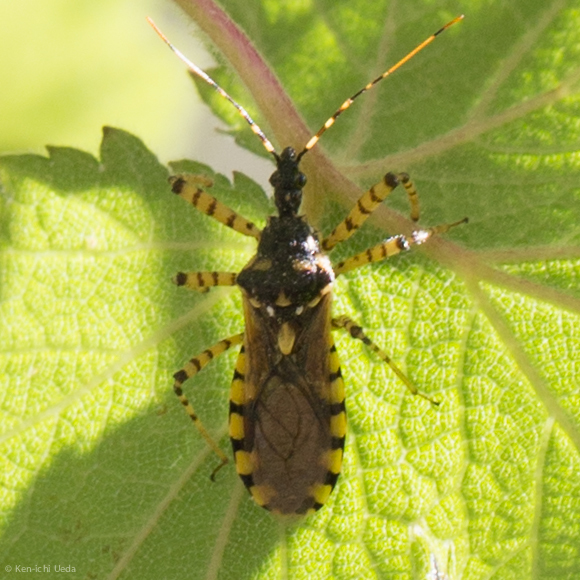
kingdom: Animalia
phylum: Arthropoda
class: Insecta
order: Hemiptera
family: Reduviidae
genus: Pselliopus
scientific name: Pselliopus marmorosus
